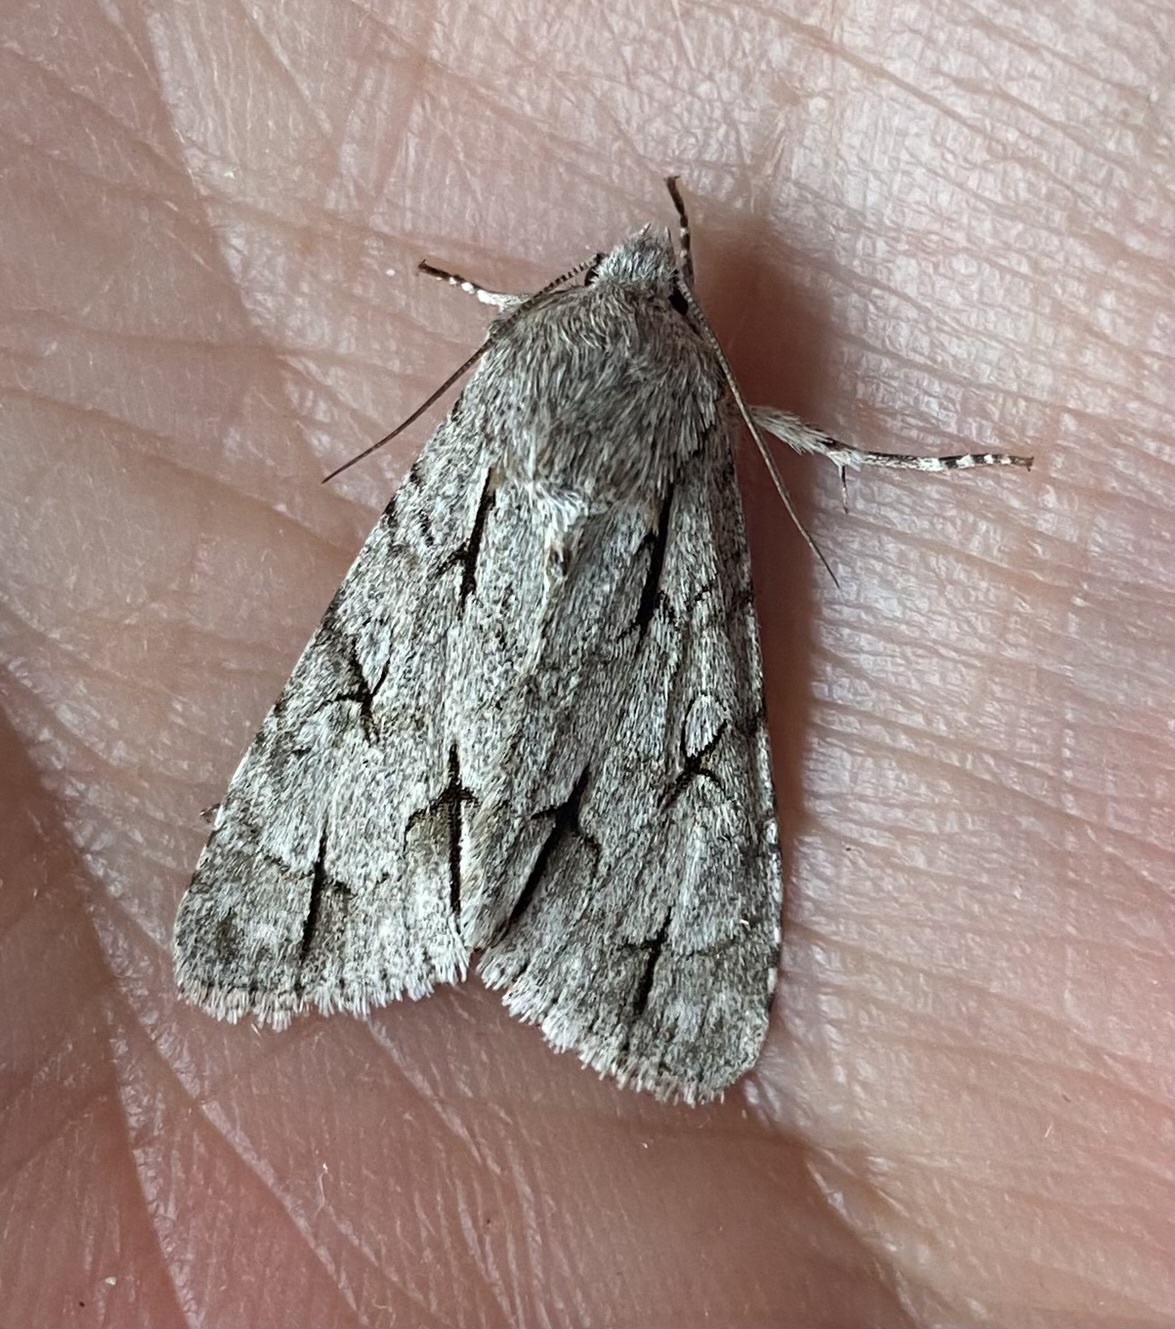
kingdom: Animalia
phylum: Arthropoda
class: Insecta
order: Lepidoptera
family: Noctuidae
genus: Acronicta
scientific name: Acronicta psi
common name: Grey dagger
